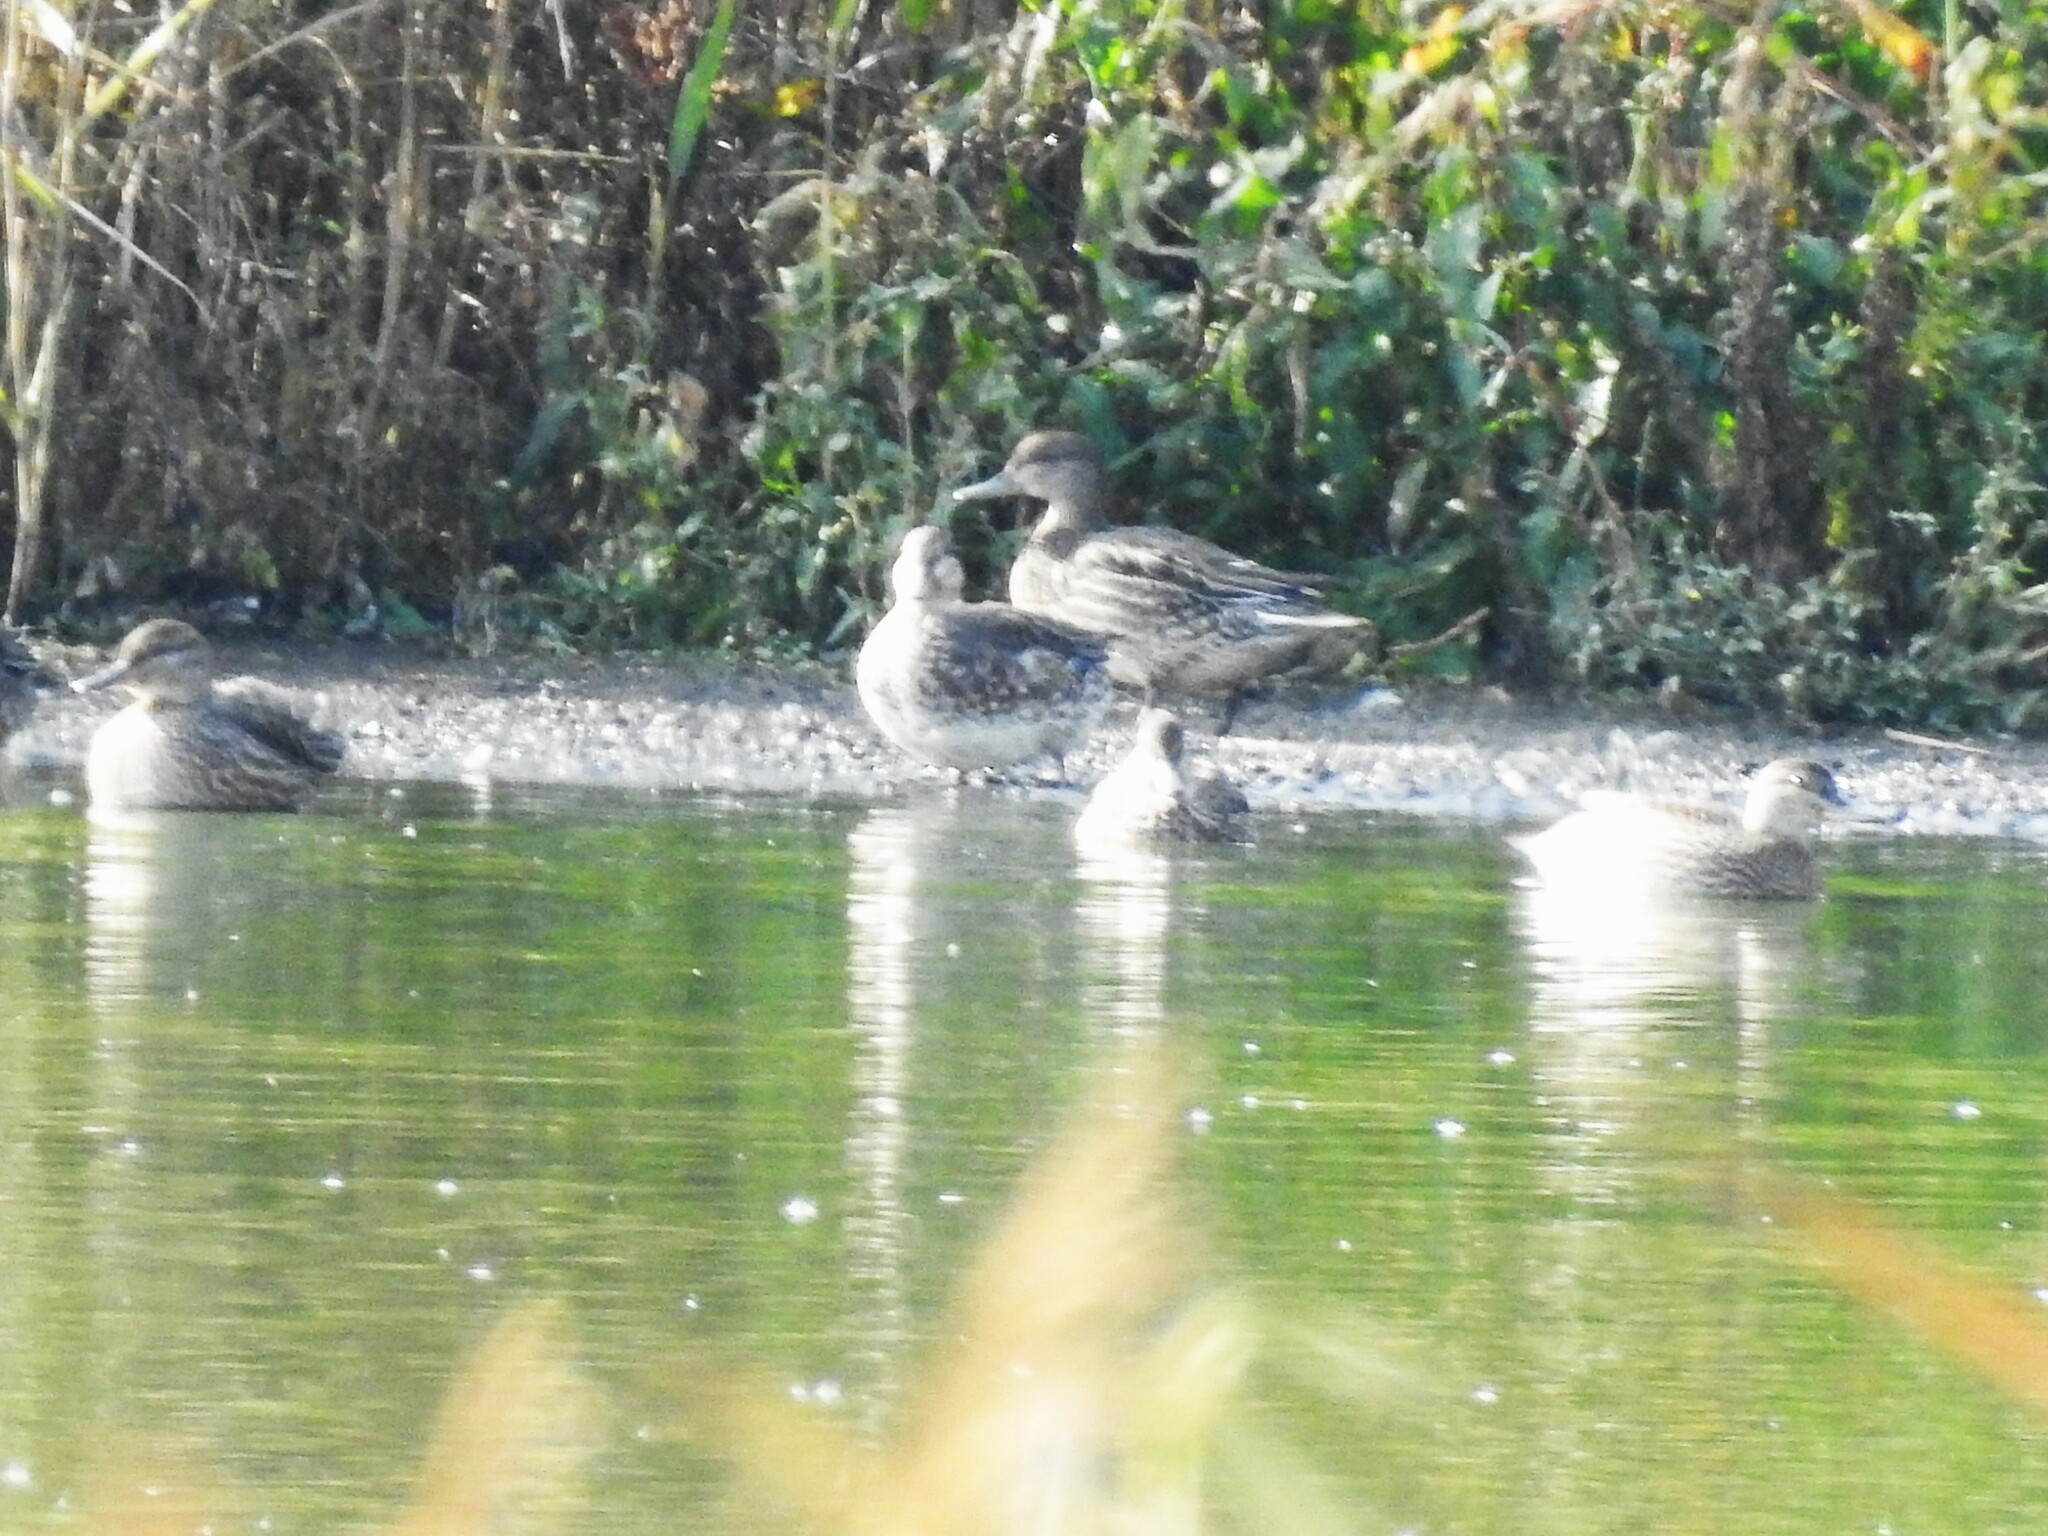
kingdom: Animalia
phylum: Chordata
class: Aves
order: Anseriformes
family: Anatidae
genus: Anas
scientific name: Anas crecca
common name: Eurasian teal
